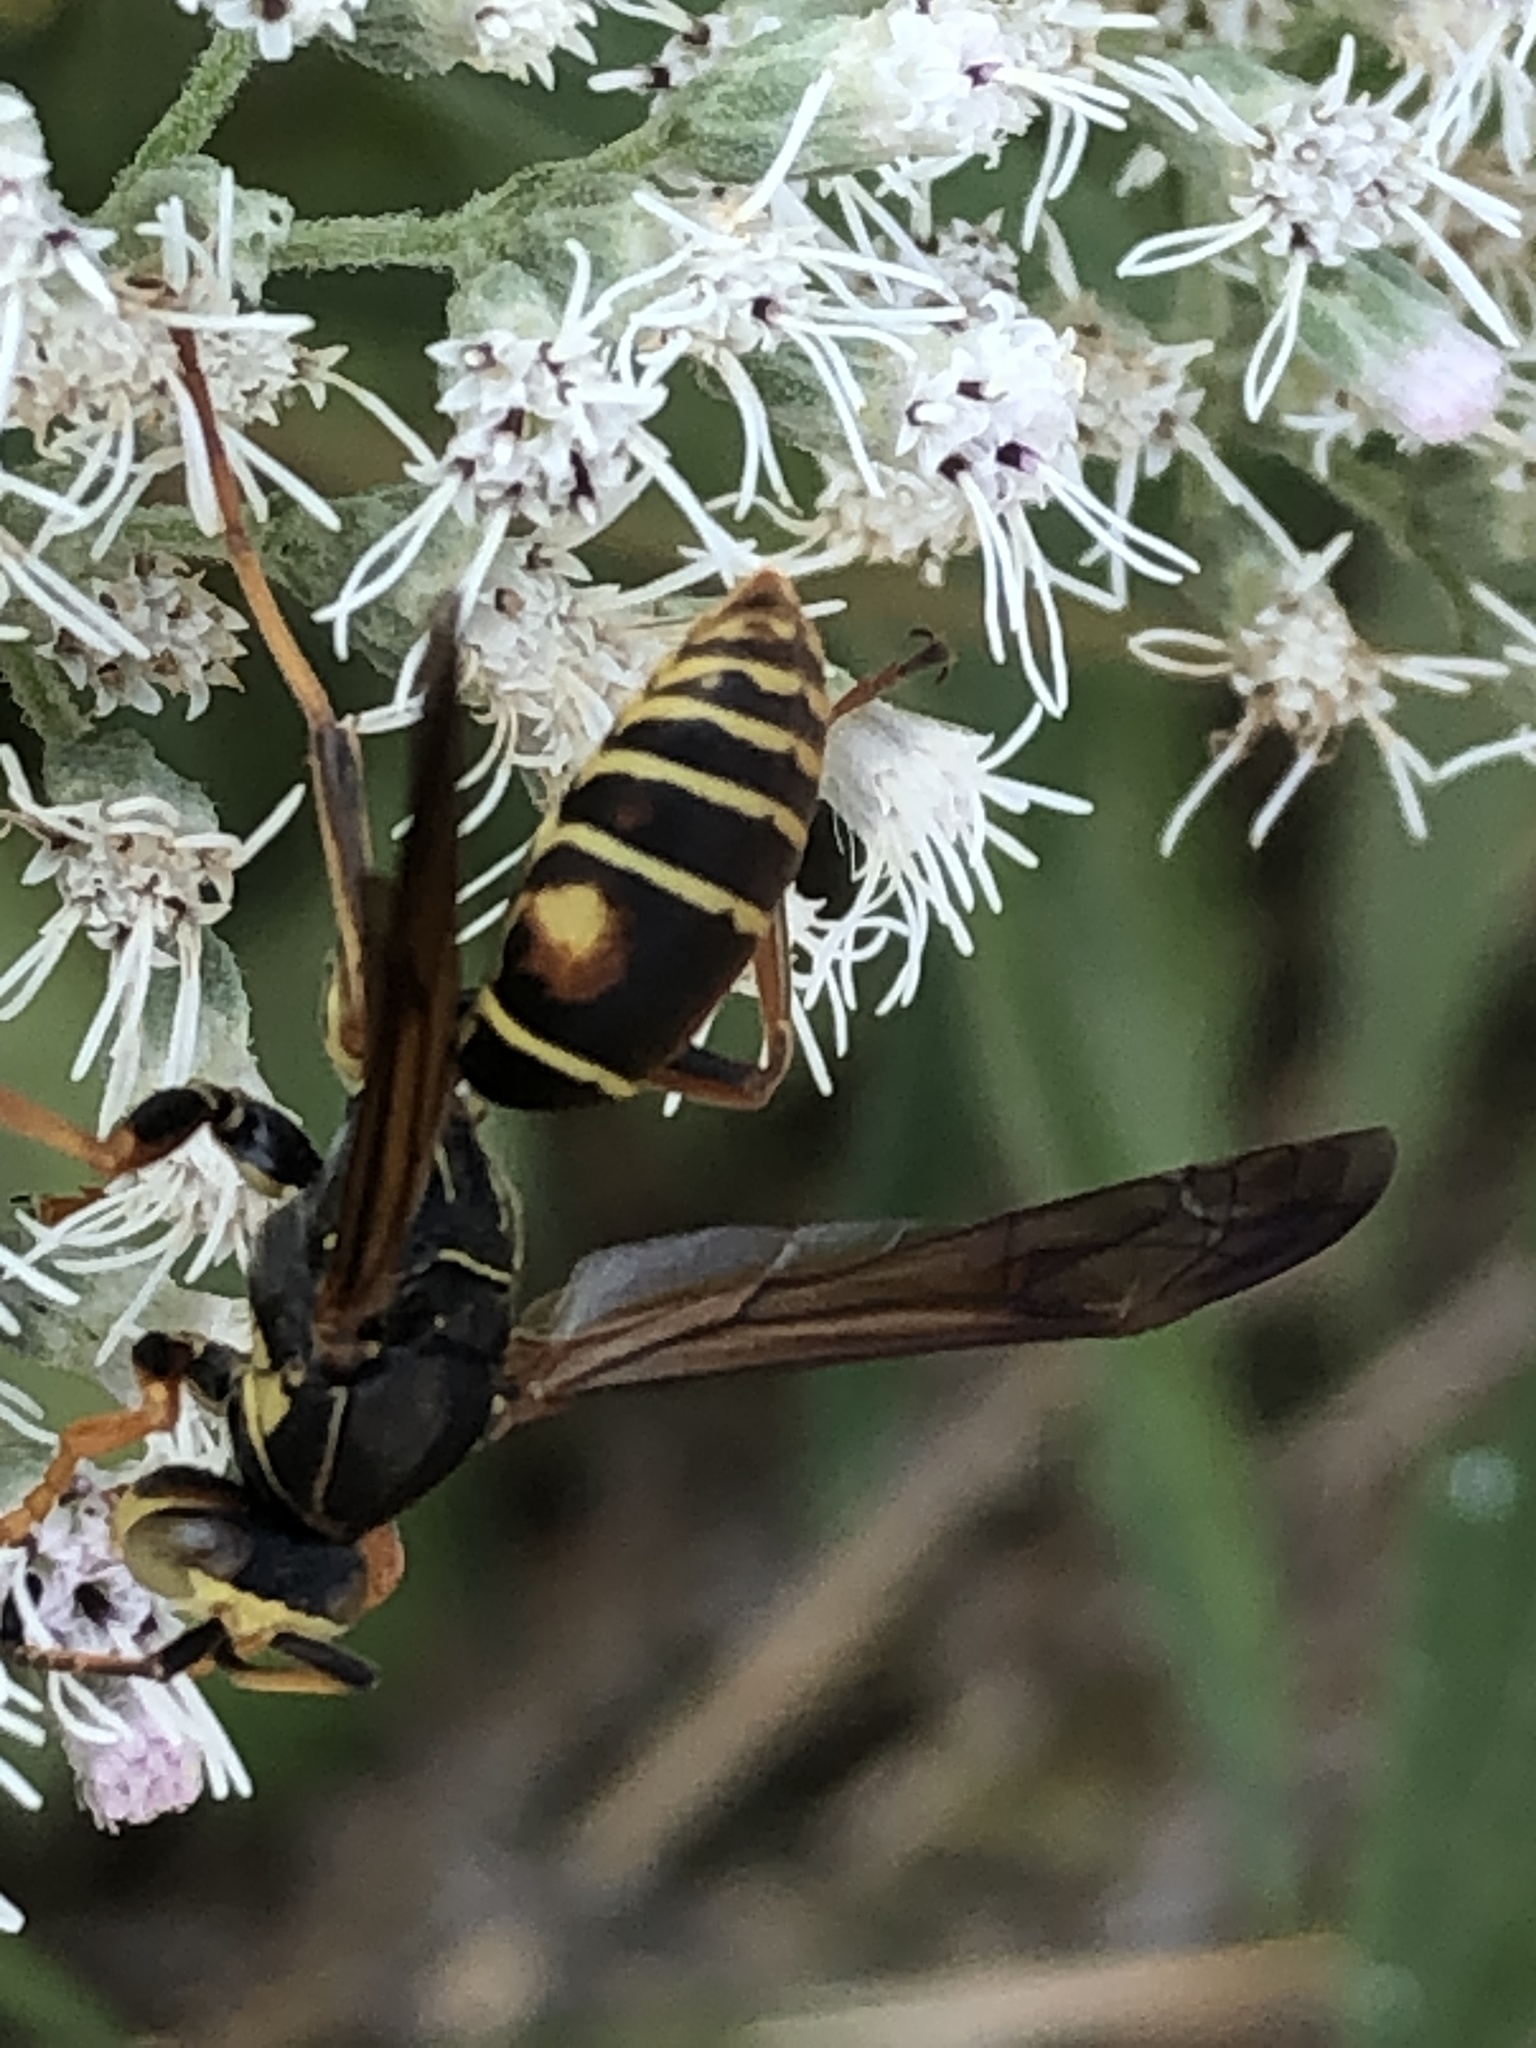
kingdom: Animalia
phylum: Arthropoda
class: Insecta
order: Hymenoptera
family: Eumenidae
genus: Polistes
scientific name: Polistes fuscatus
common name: Dark paper wasp
